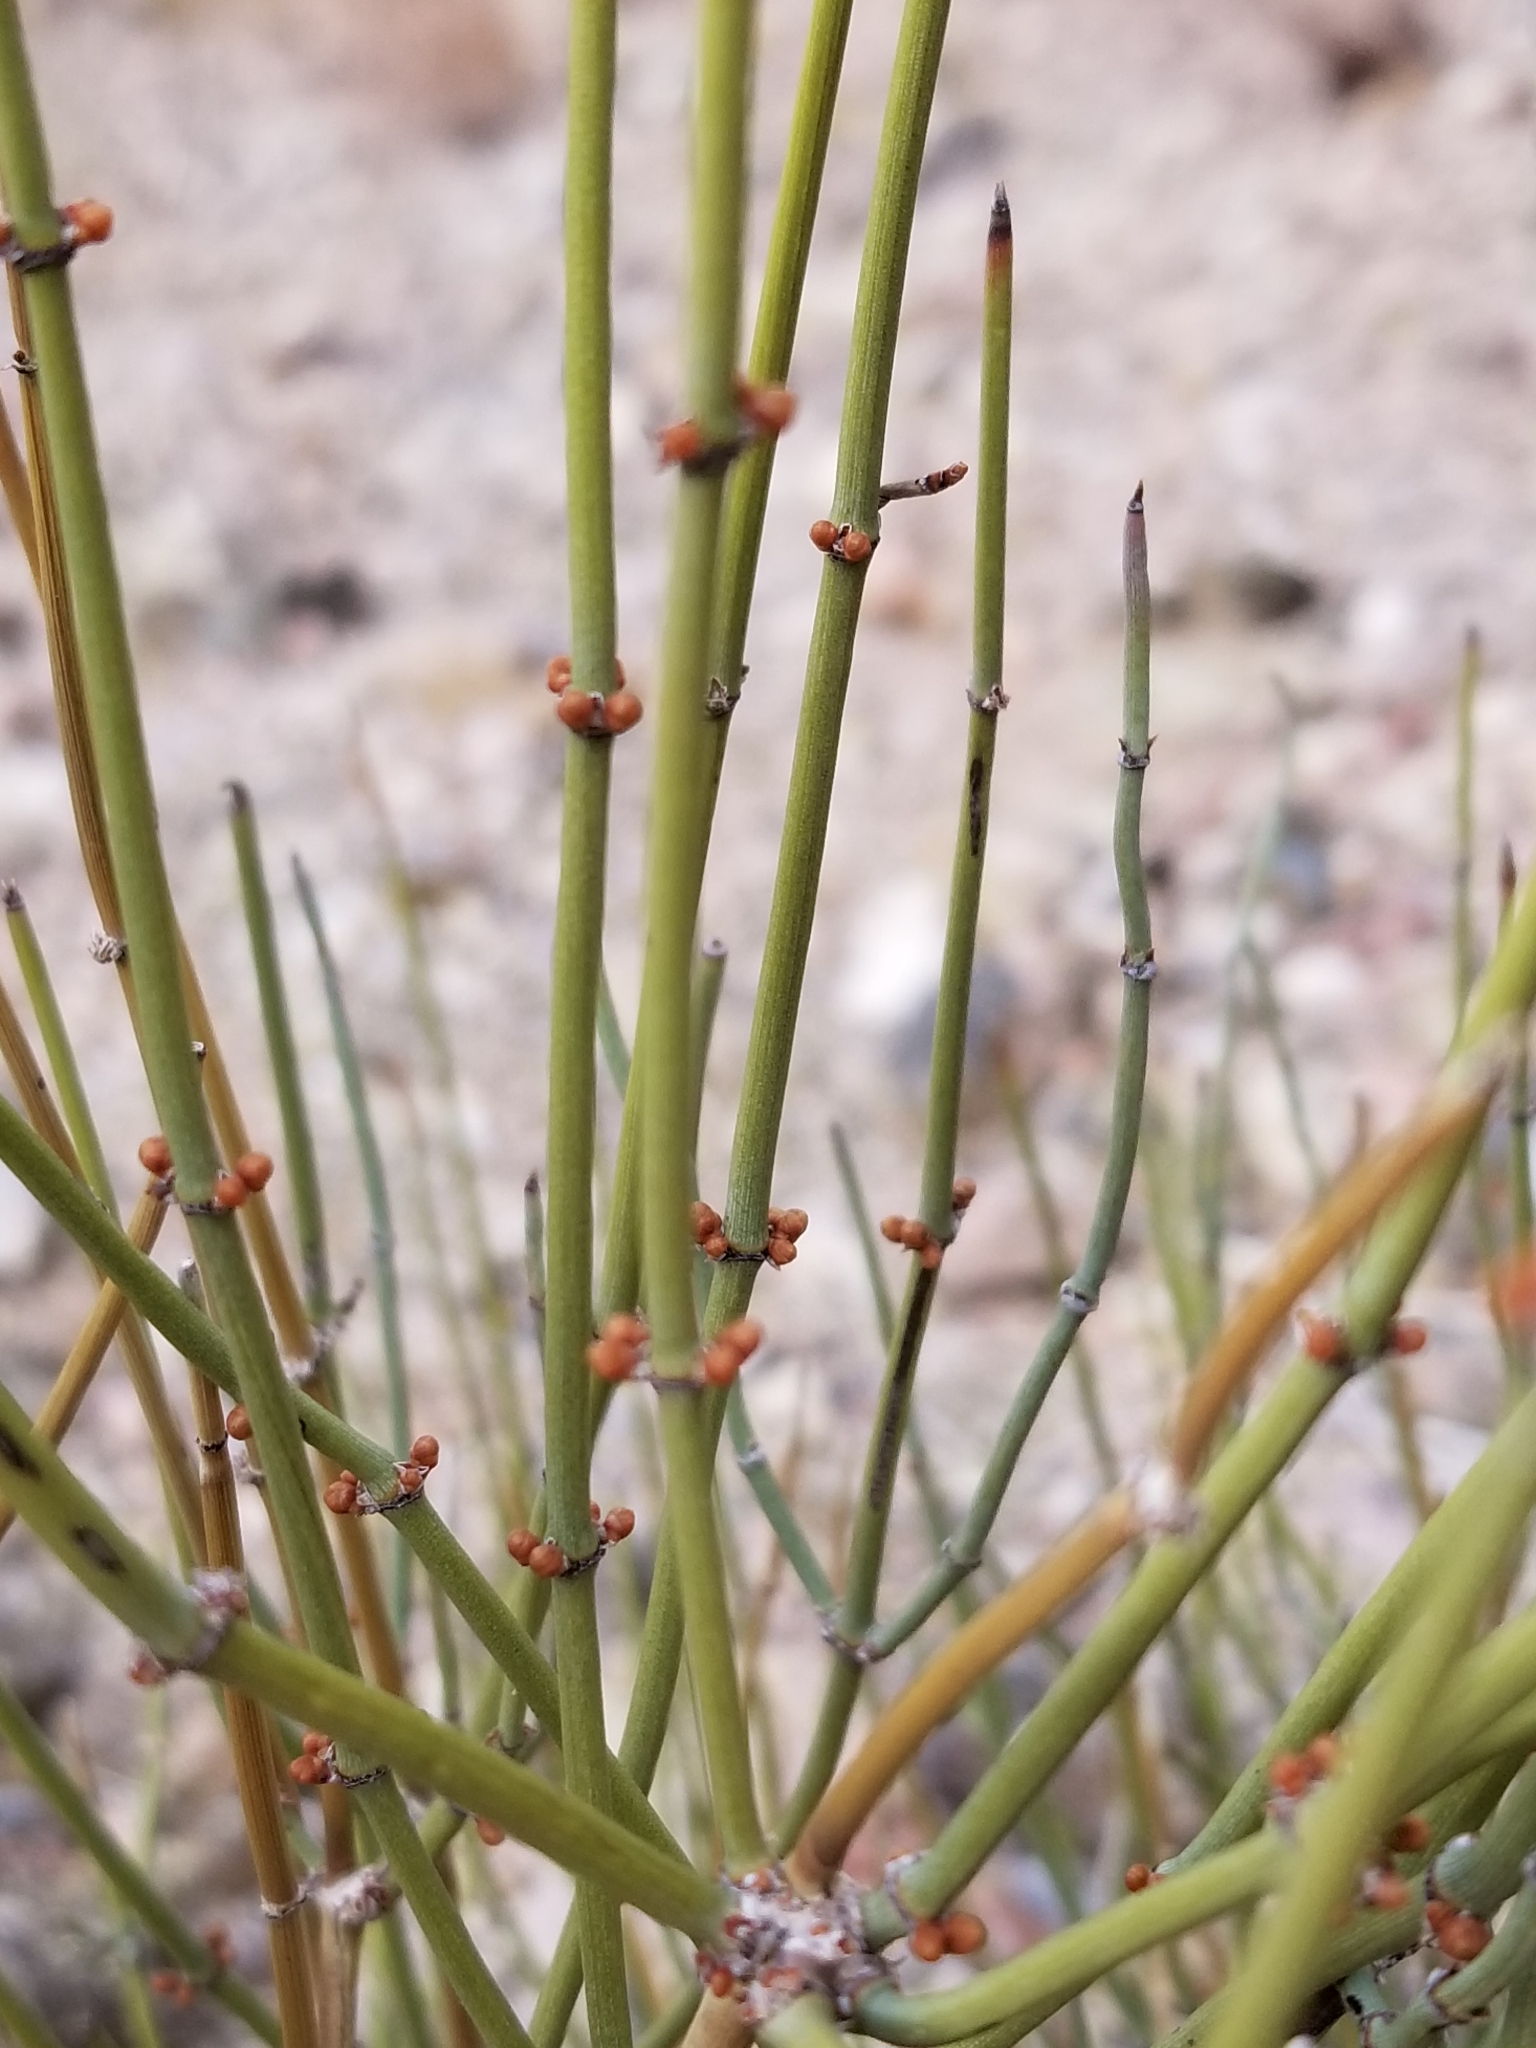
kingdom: Plantae
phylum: Tracheophyta
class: Gnetopsida
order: Ephedrales
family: Ephedraceae
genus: Ephedra
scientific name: Ephedra nevadensis
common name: Gray ephedra
